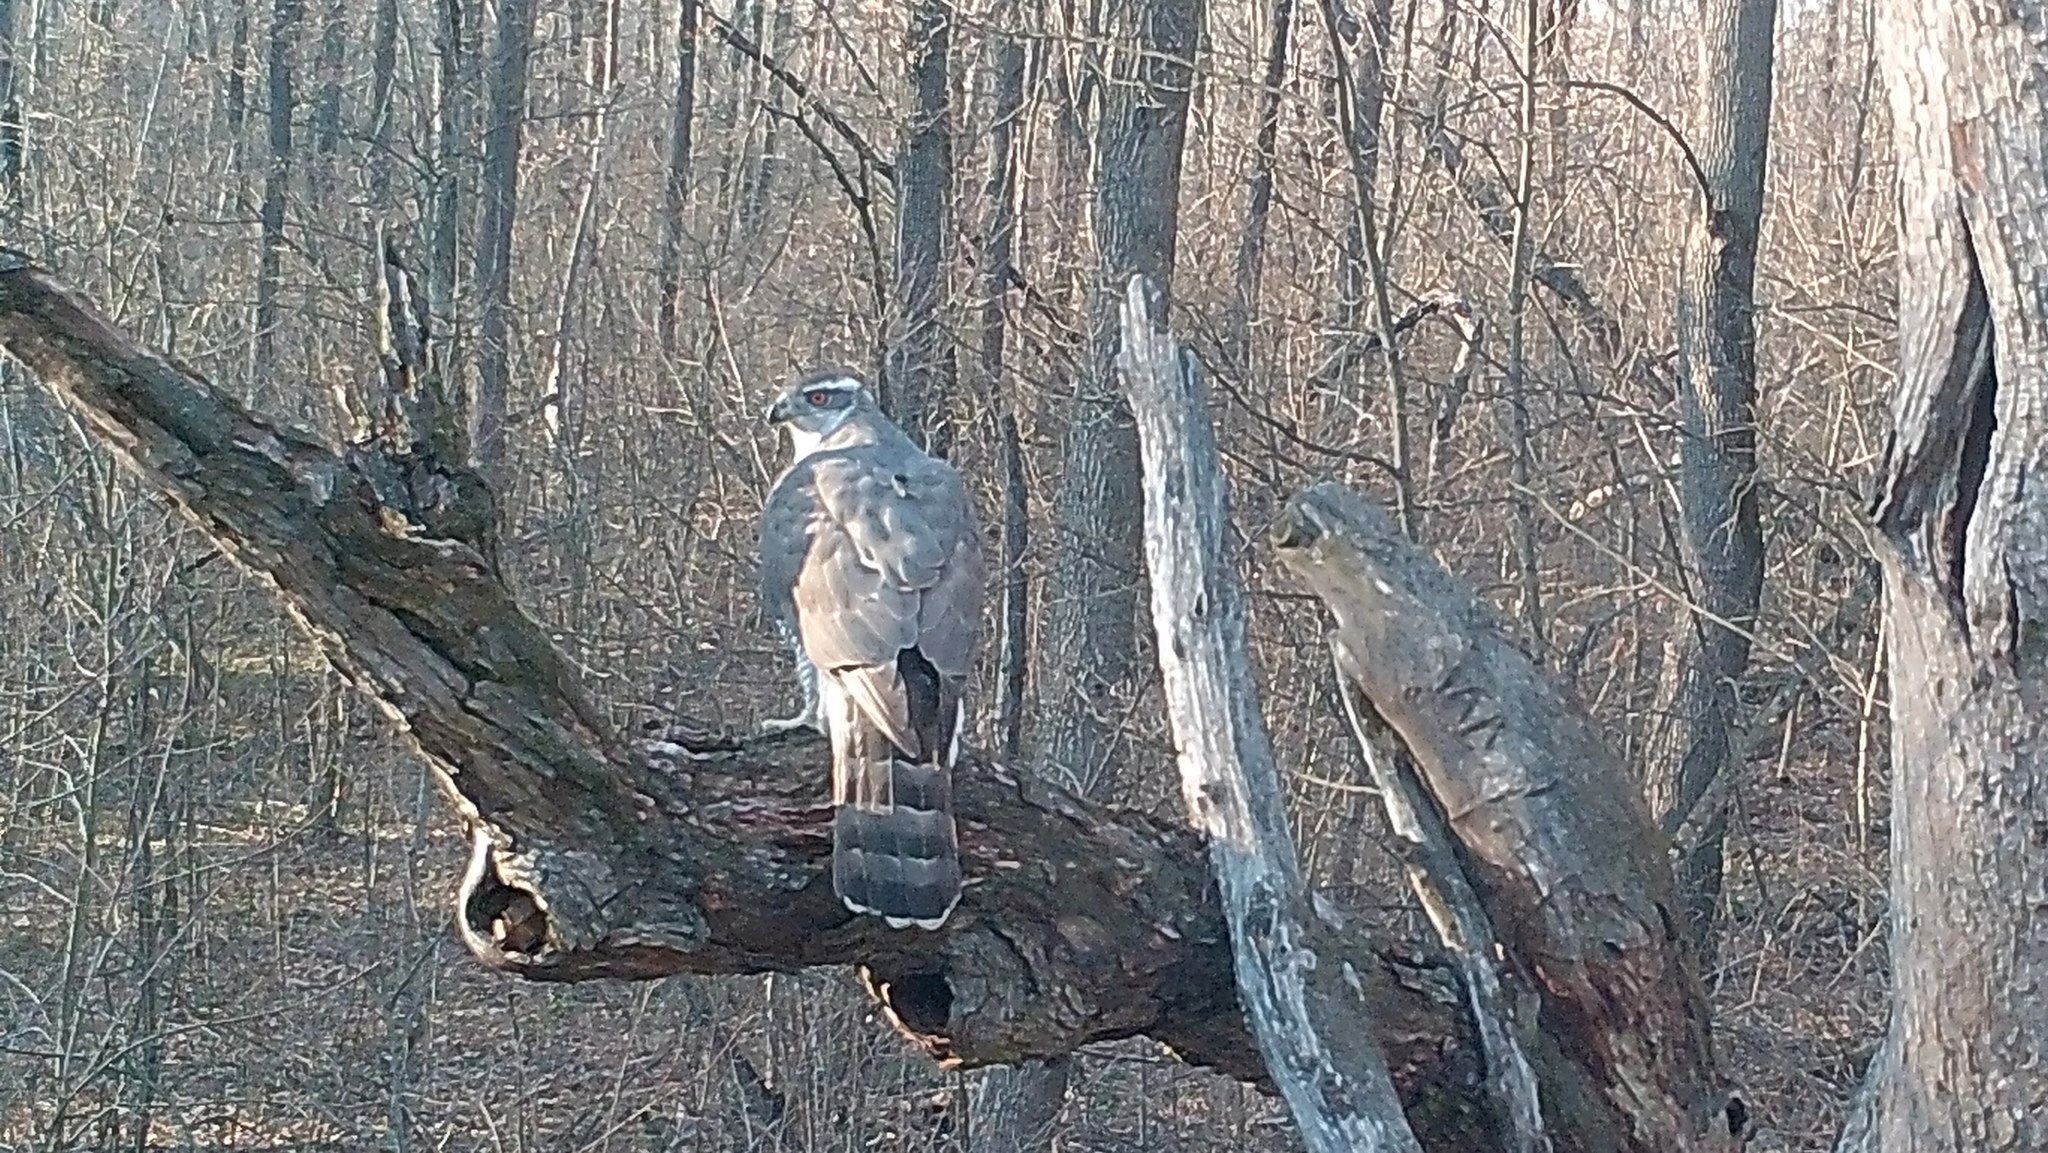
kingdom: Animalia
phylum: Chordata
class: Aves
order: Accipitriformes
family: Accipitridae
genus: Accipiter
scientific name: Accipiter gentilis
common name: Northern goshawk
